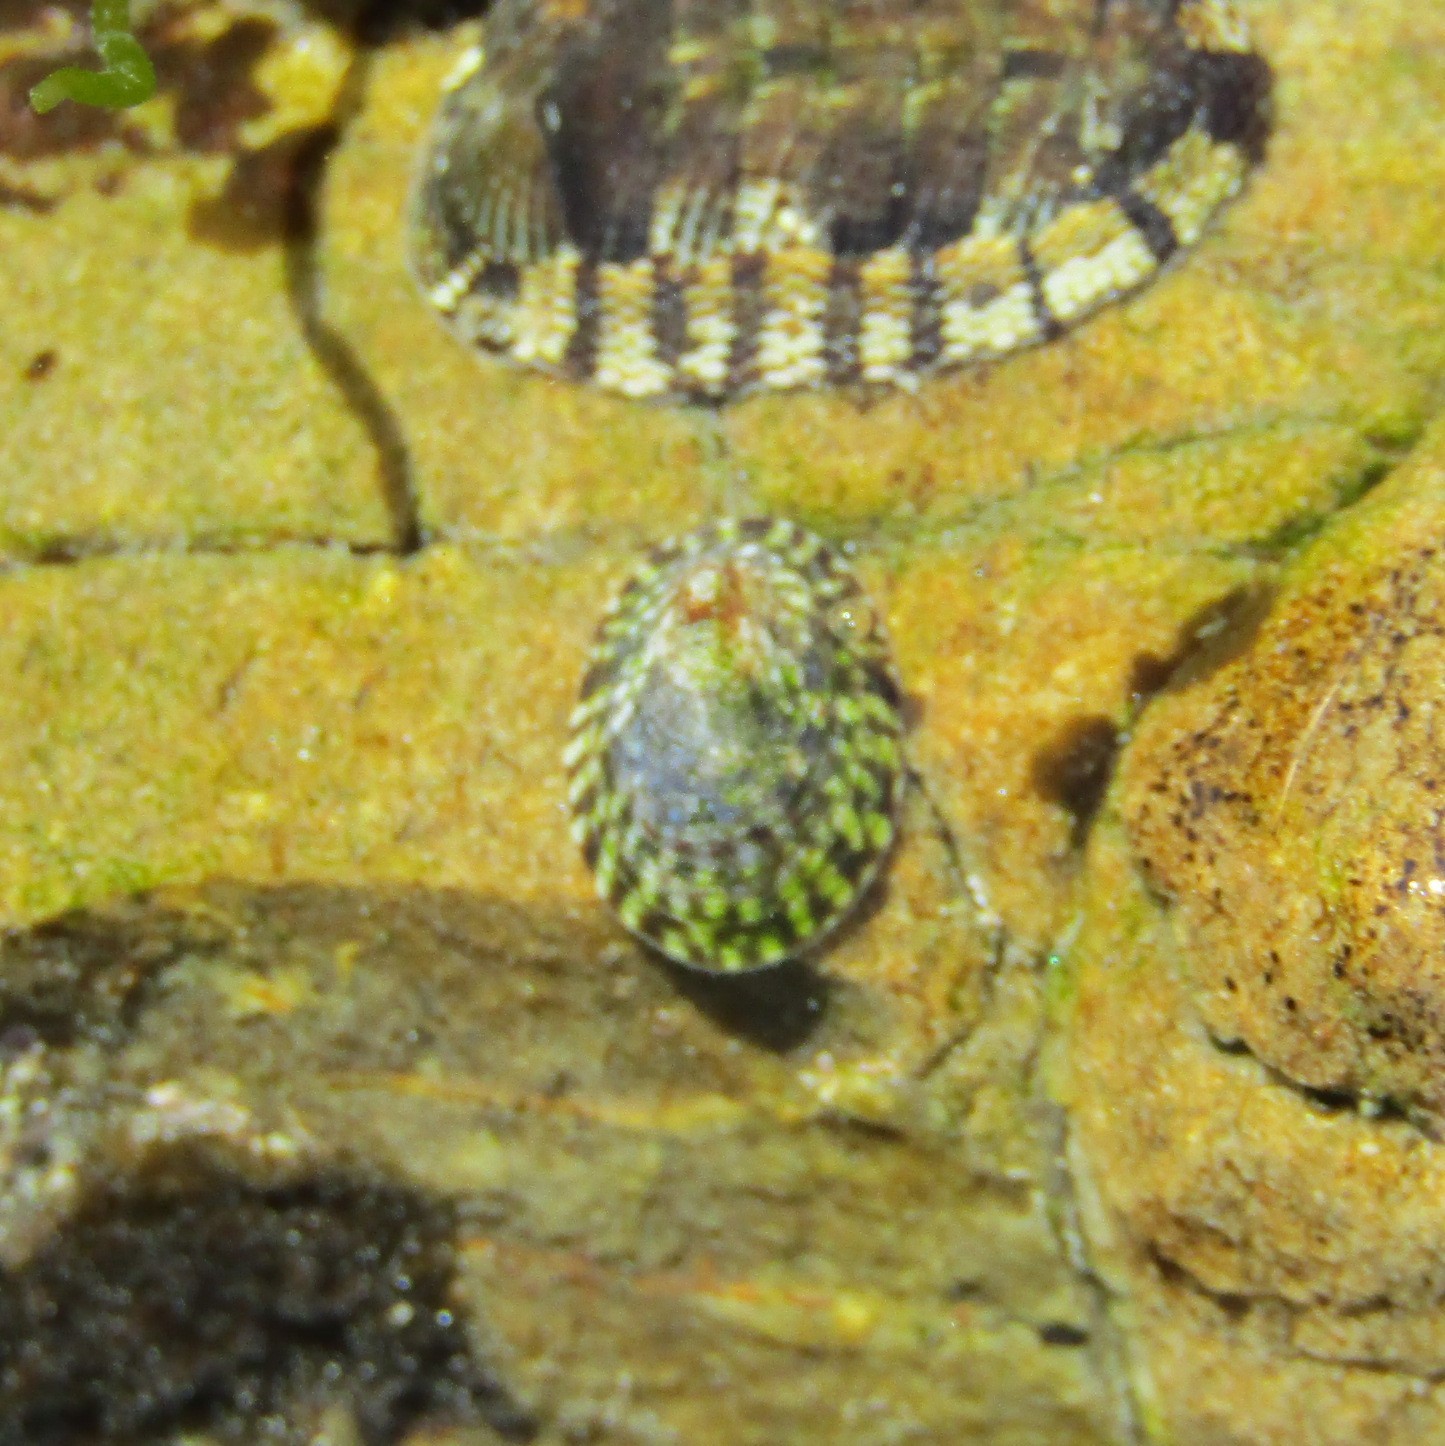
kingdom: Animalia
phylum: Mollusca
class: Gastropoda
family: Lottiidae
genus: Notoacmea
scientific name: Notoacmea
